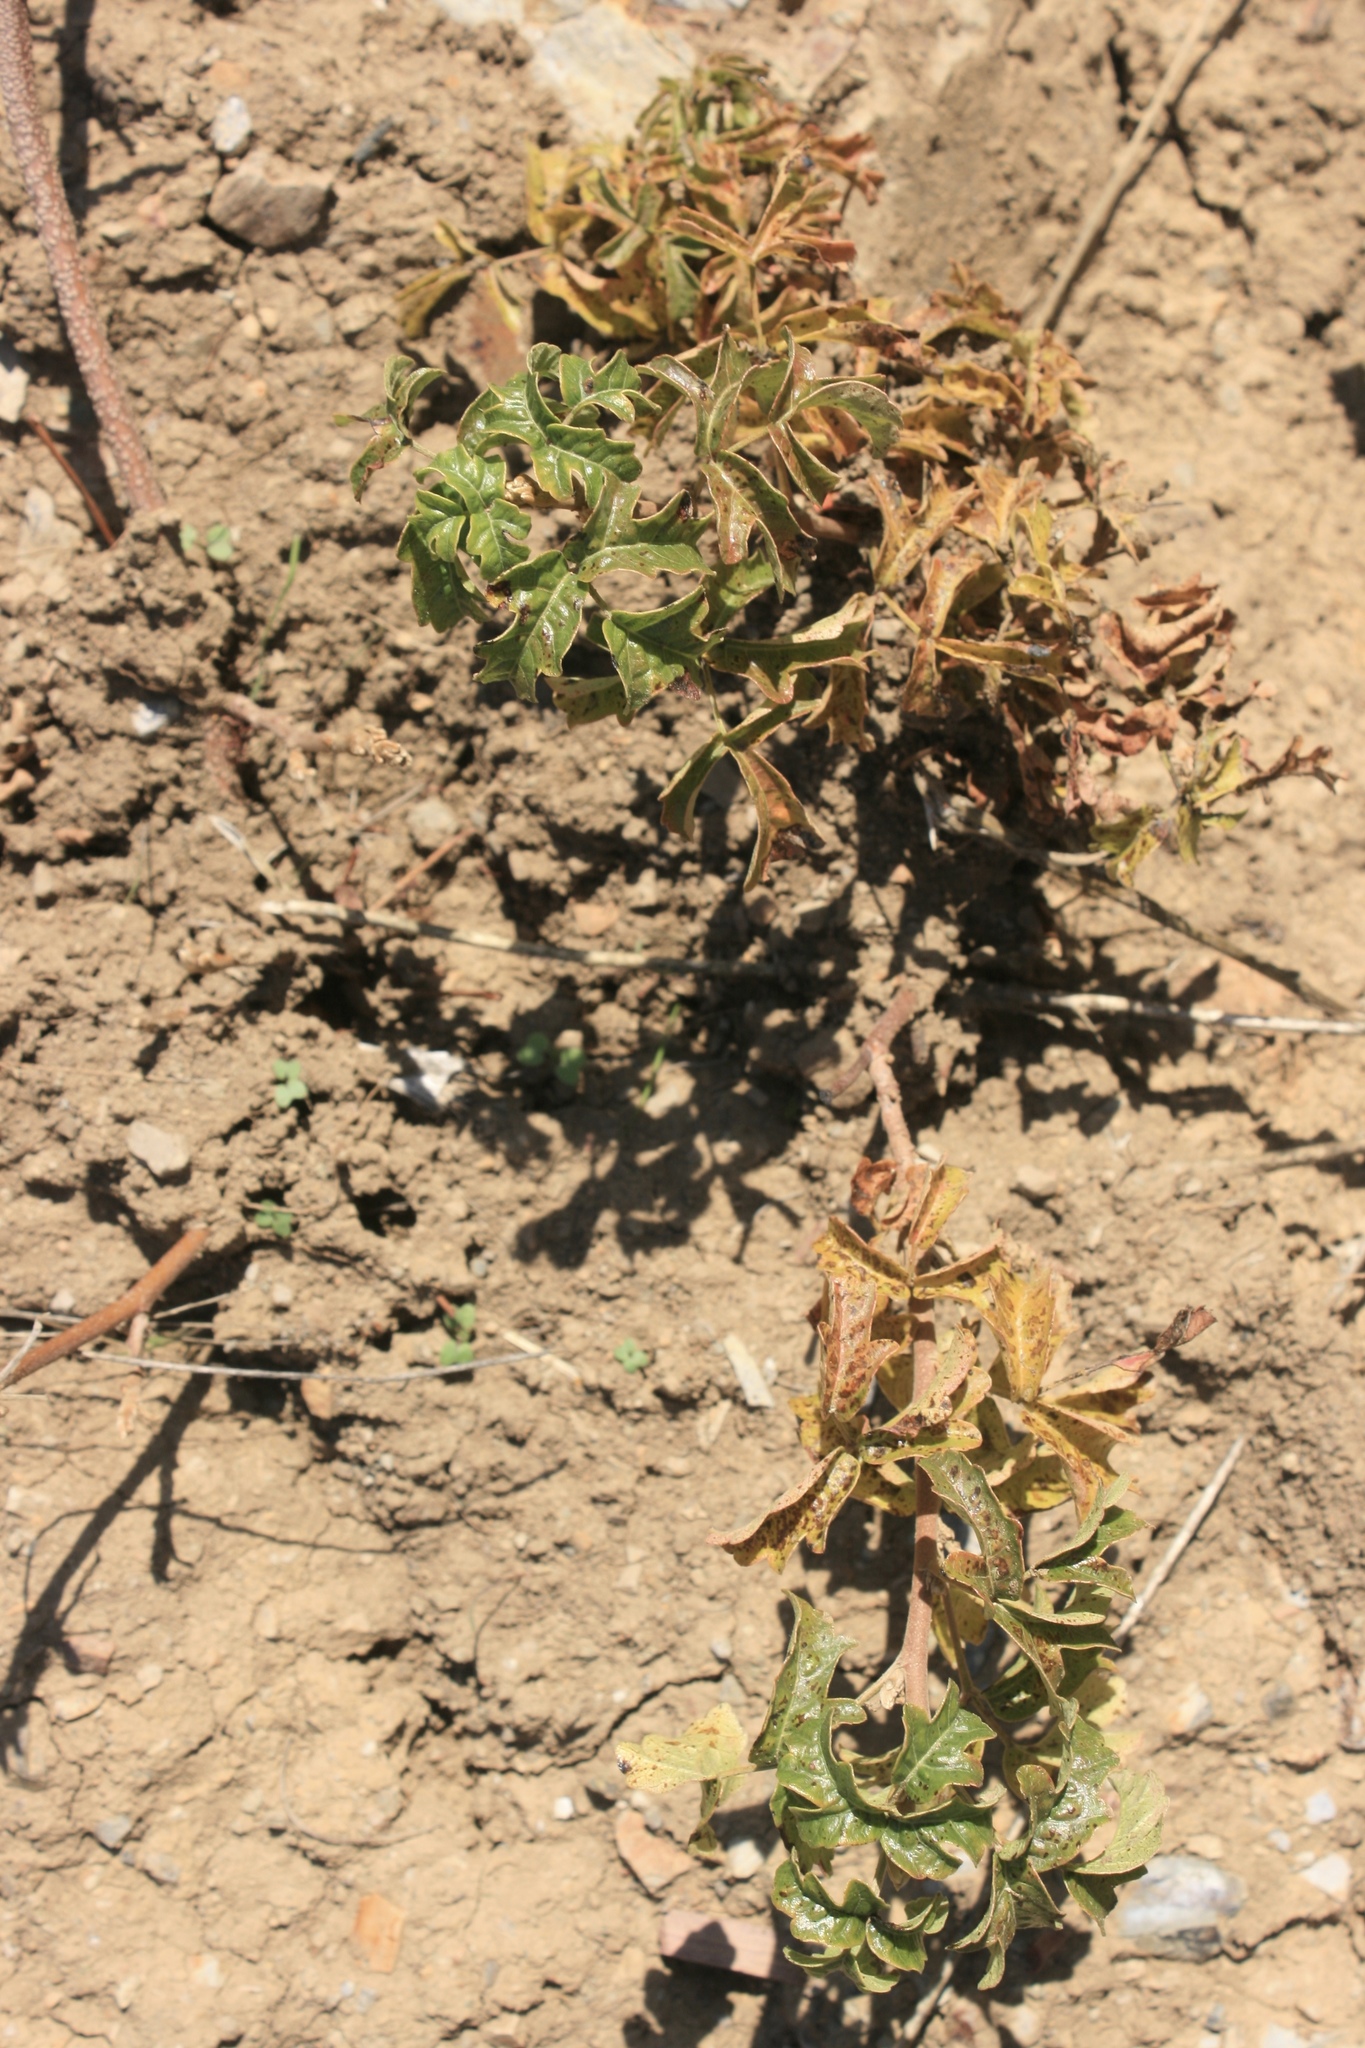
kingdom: Plantae
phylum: Tracheophyta
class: Magnoliopsida
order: Sapindales
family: Anacardiaceae
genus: Toxicodendron
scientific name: Toxicodendron diversilobum
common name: Pacific poison-oak
